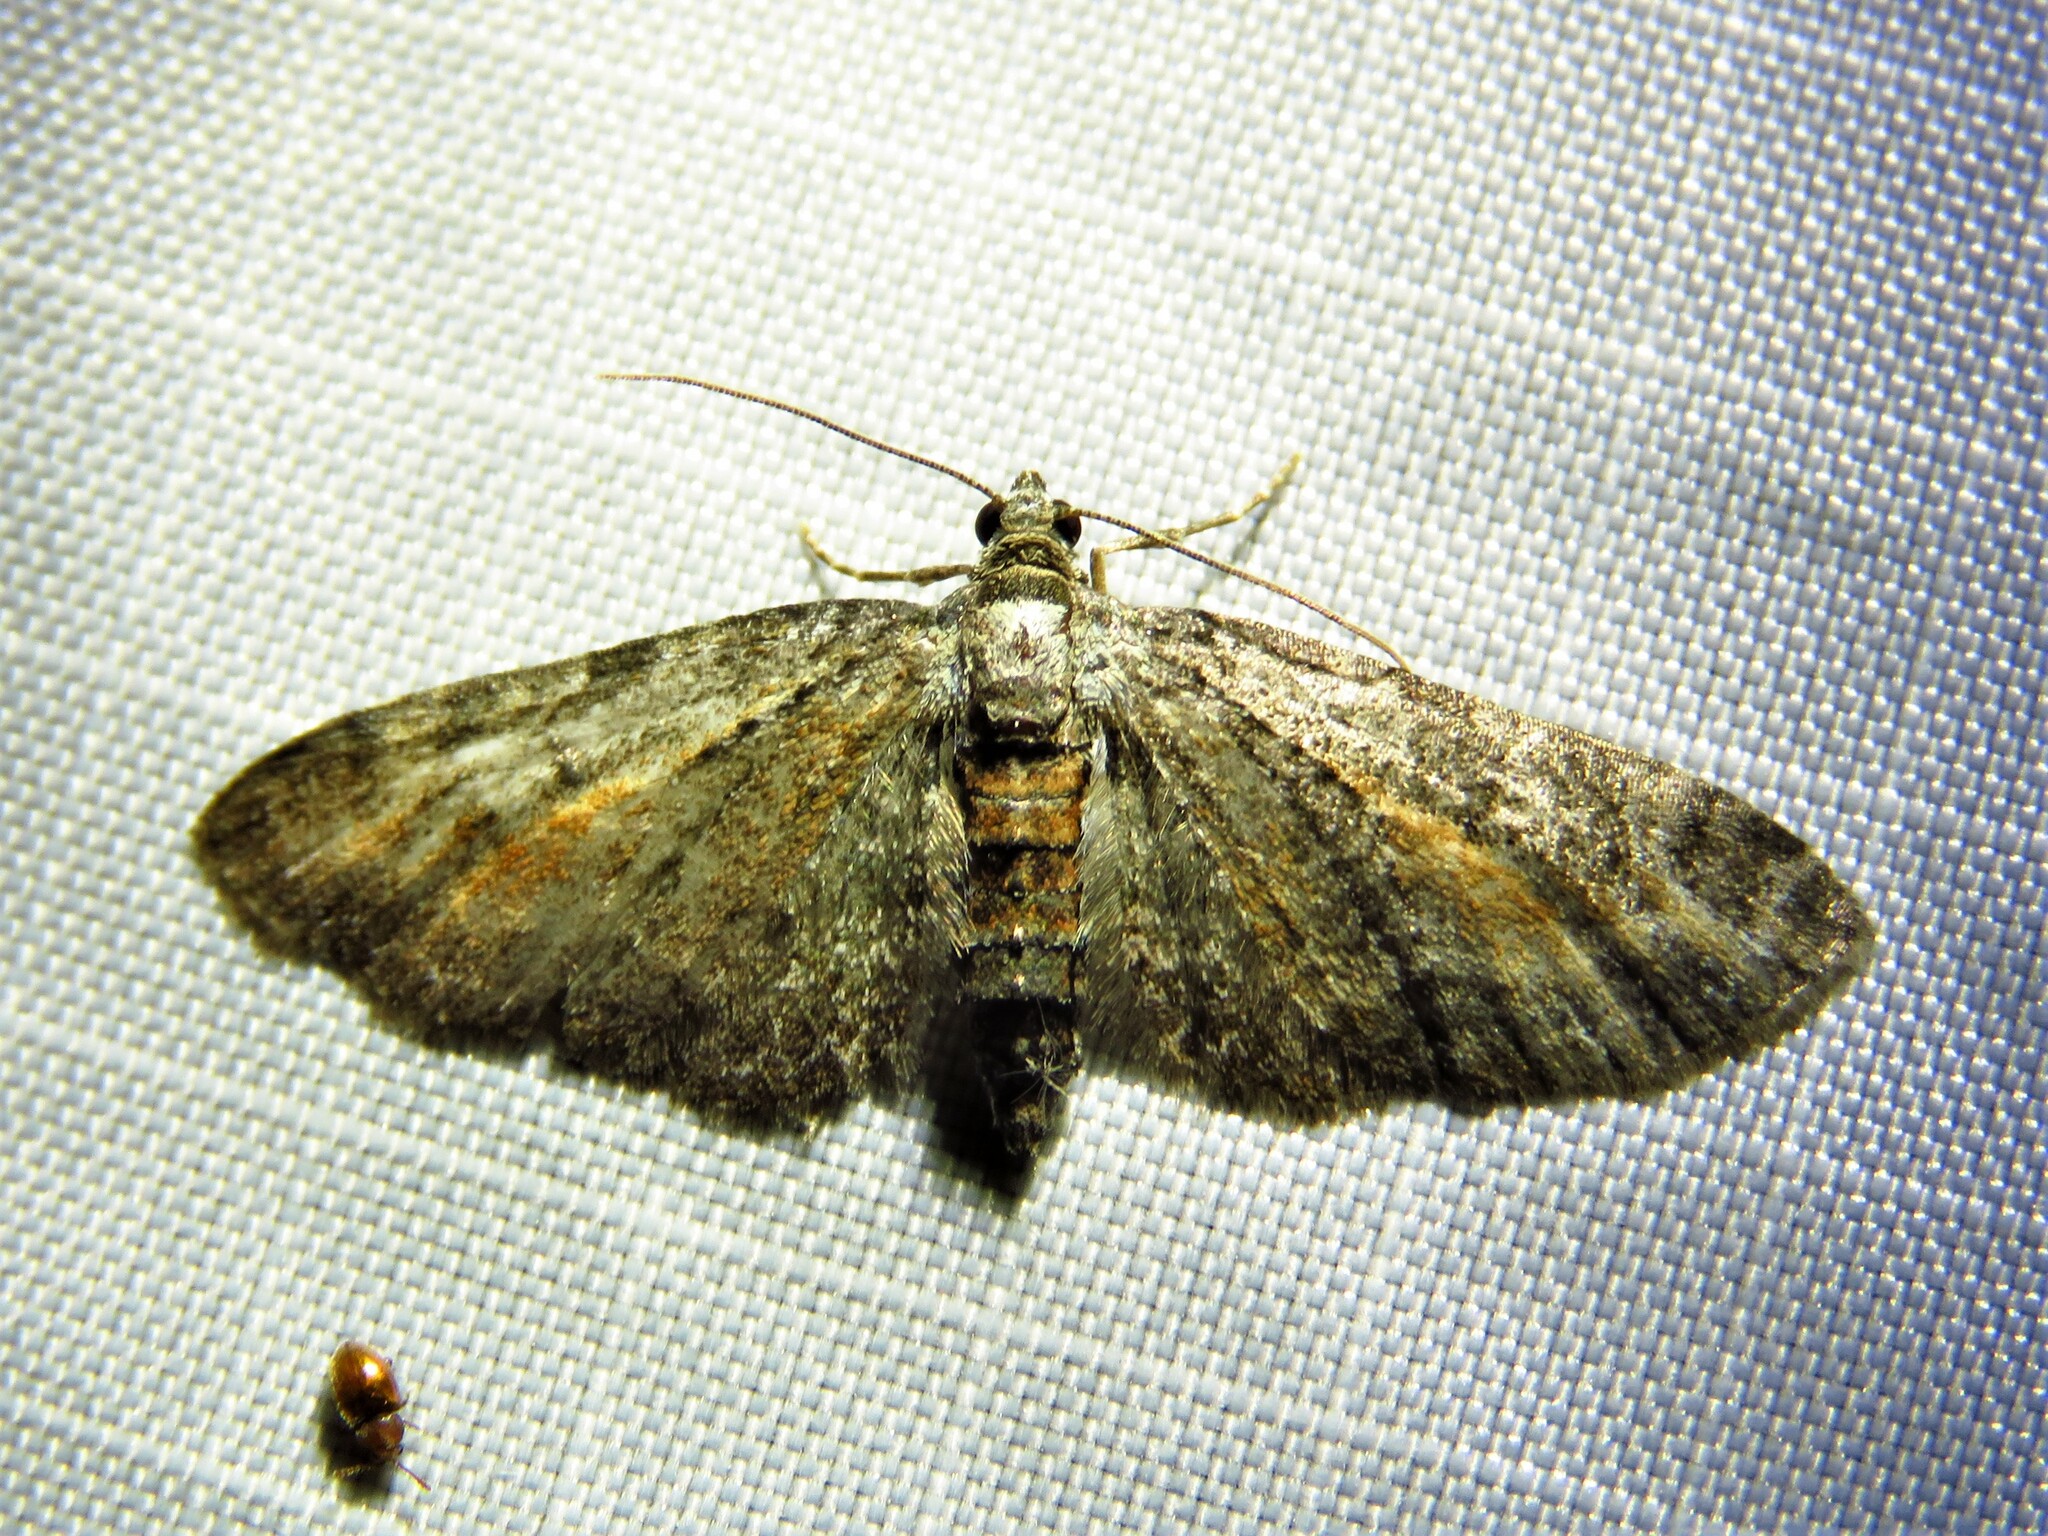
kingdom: Animalia
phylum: Arthropoda
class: Insecta
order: Lepidoptera
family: Geometridae
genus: Eupithecia
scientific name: Eupithecia icterata
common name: Tawny speckled pug
